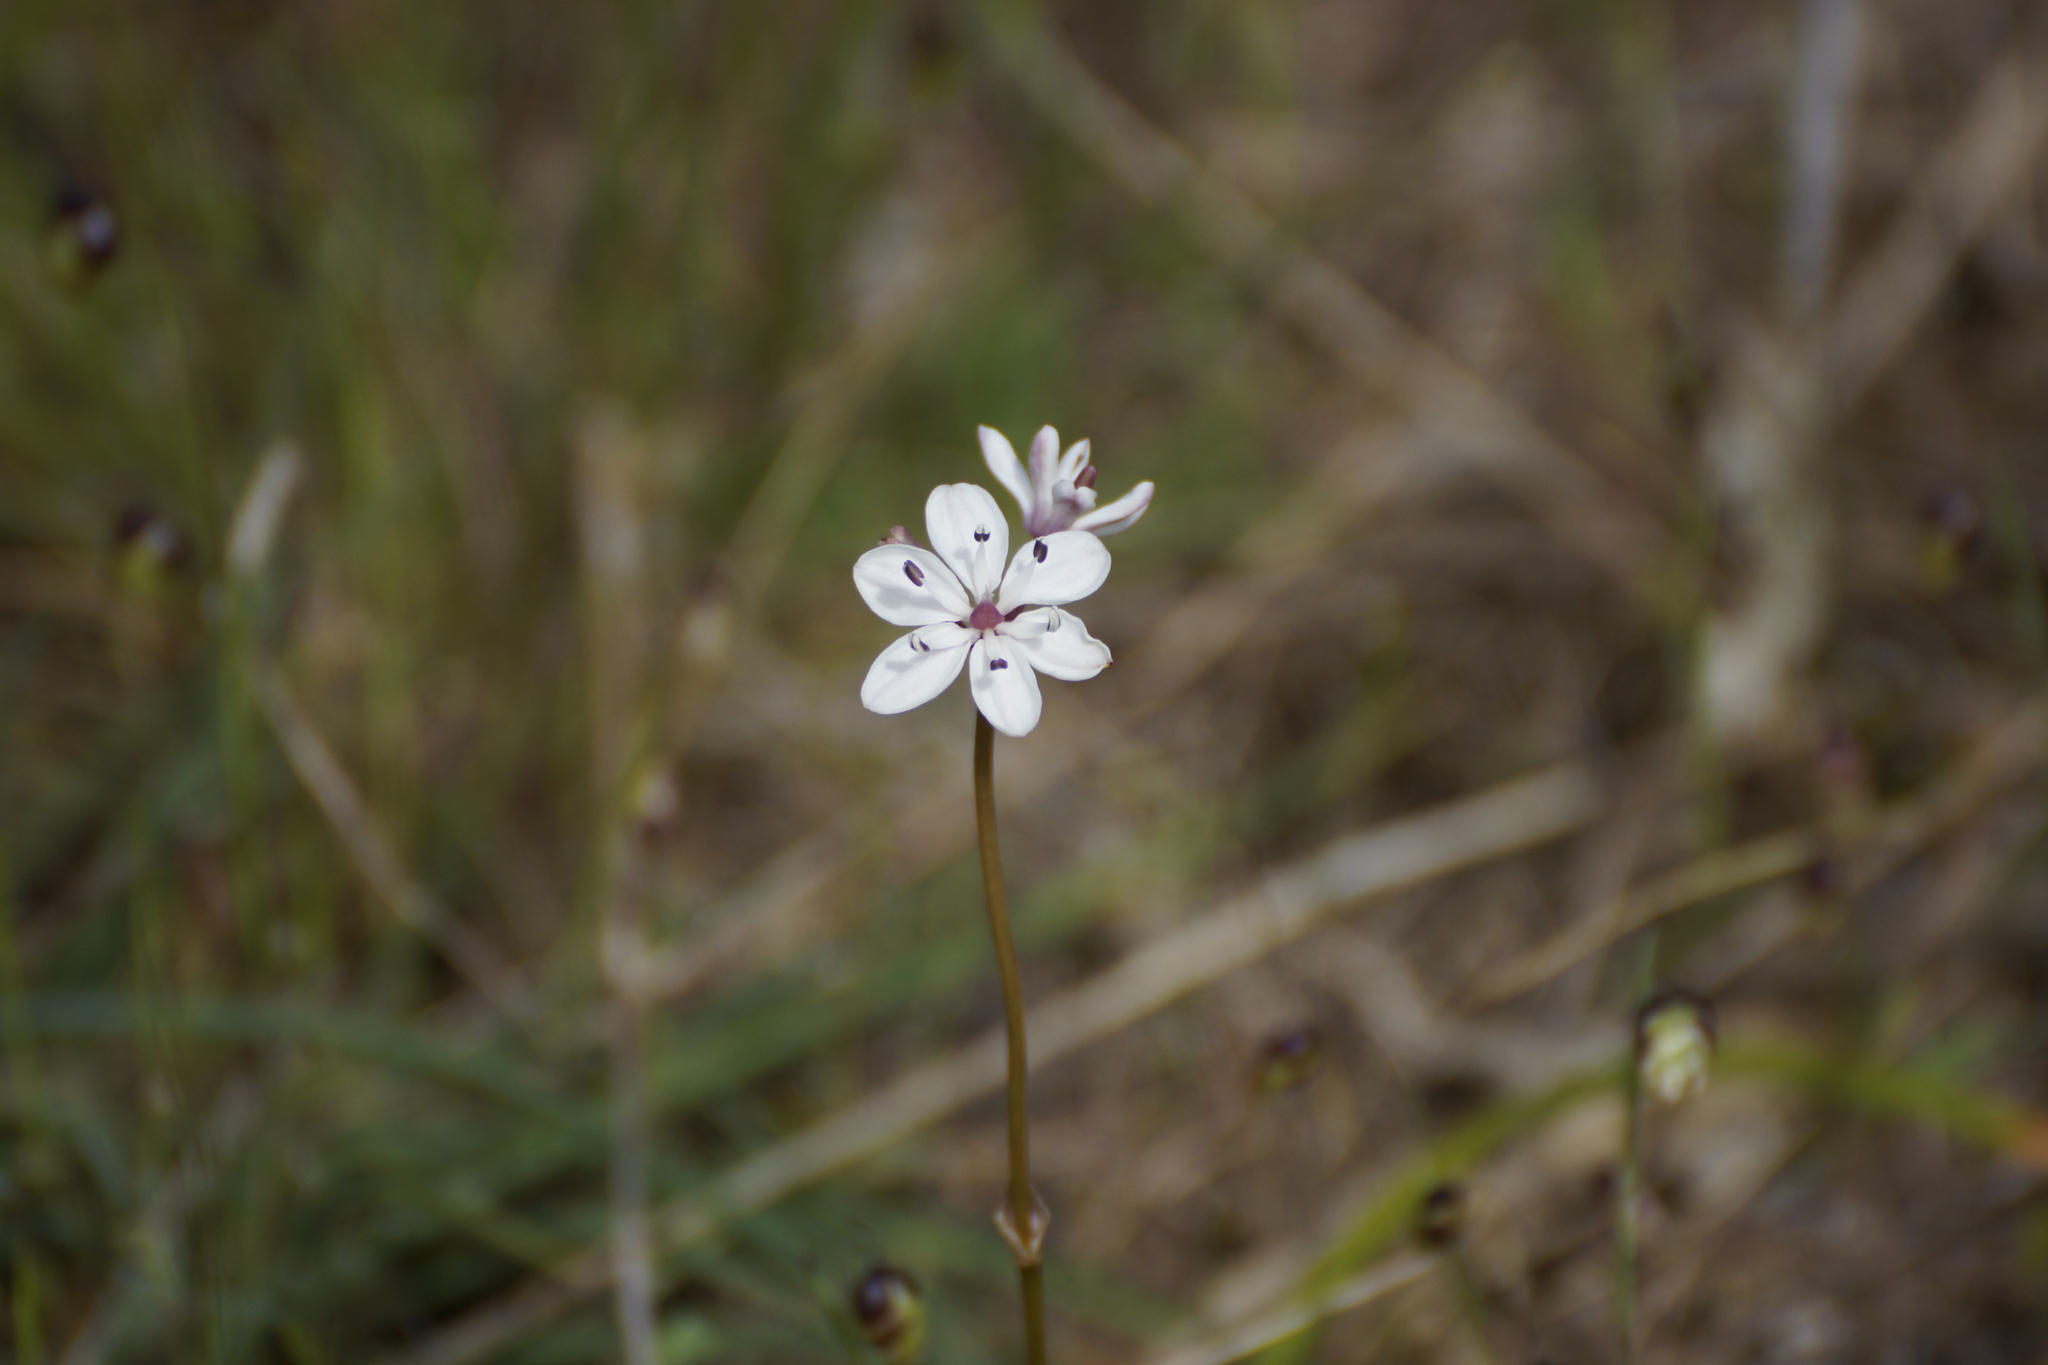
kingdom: Plantae
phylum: Tracheophyta
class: Liliopsida
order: Liliales
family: Colchicaceae
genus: Burchardia
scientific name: Burchardia umbellata
